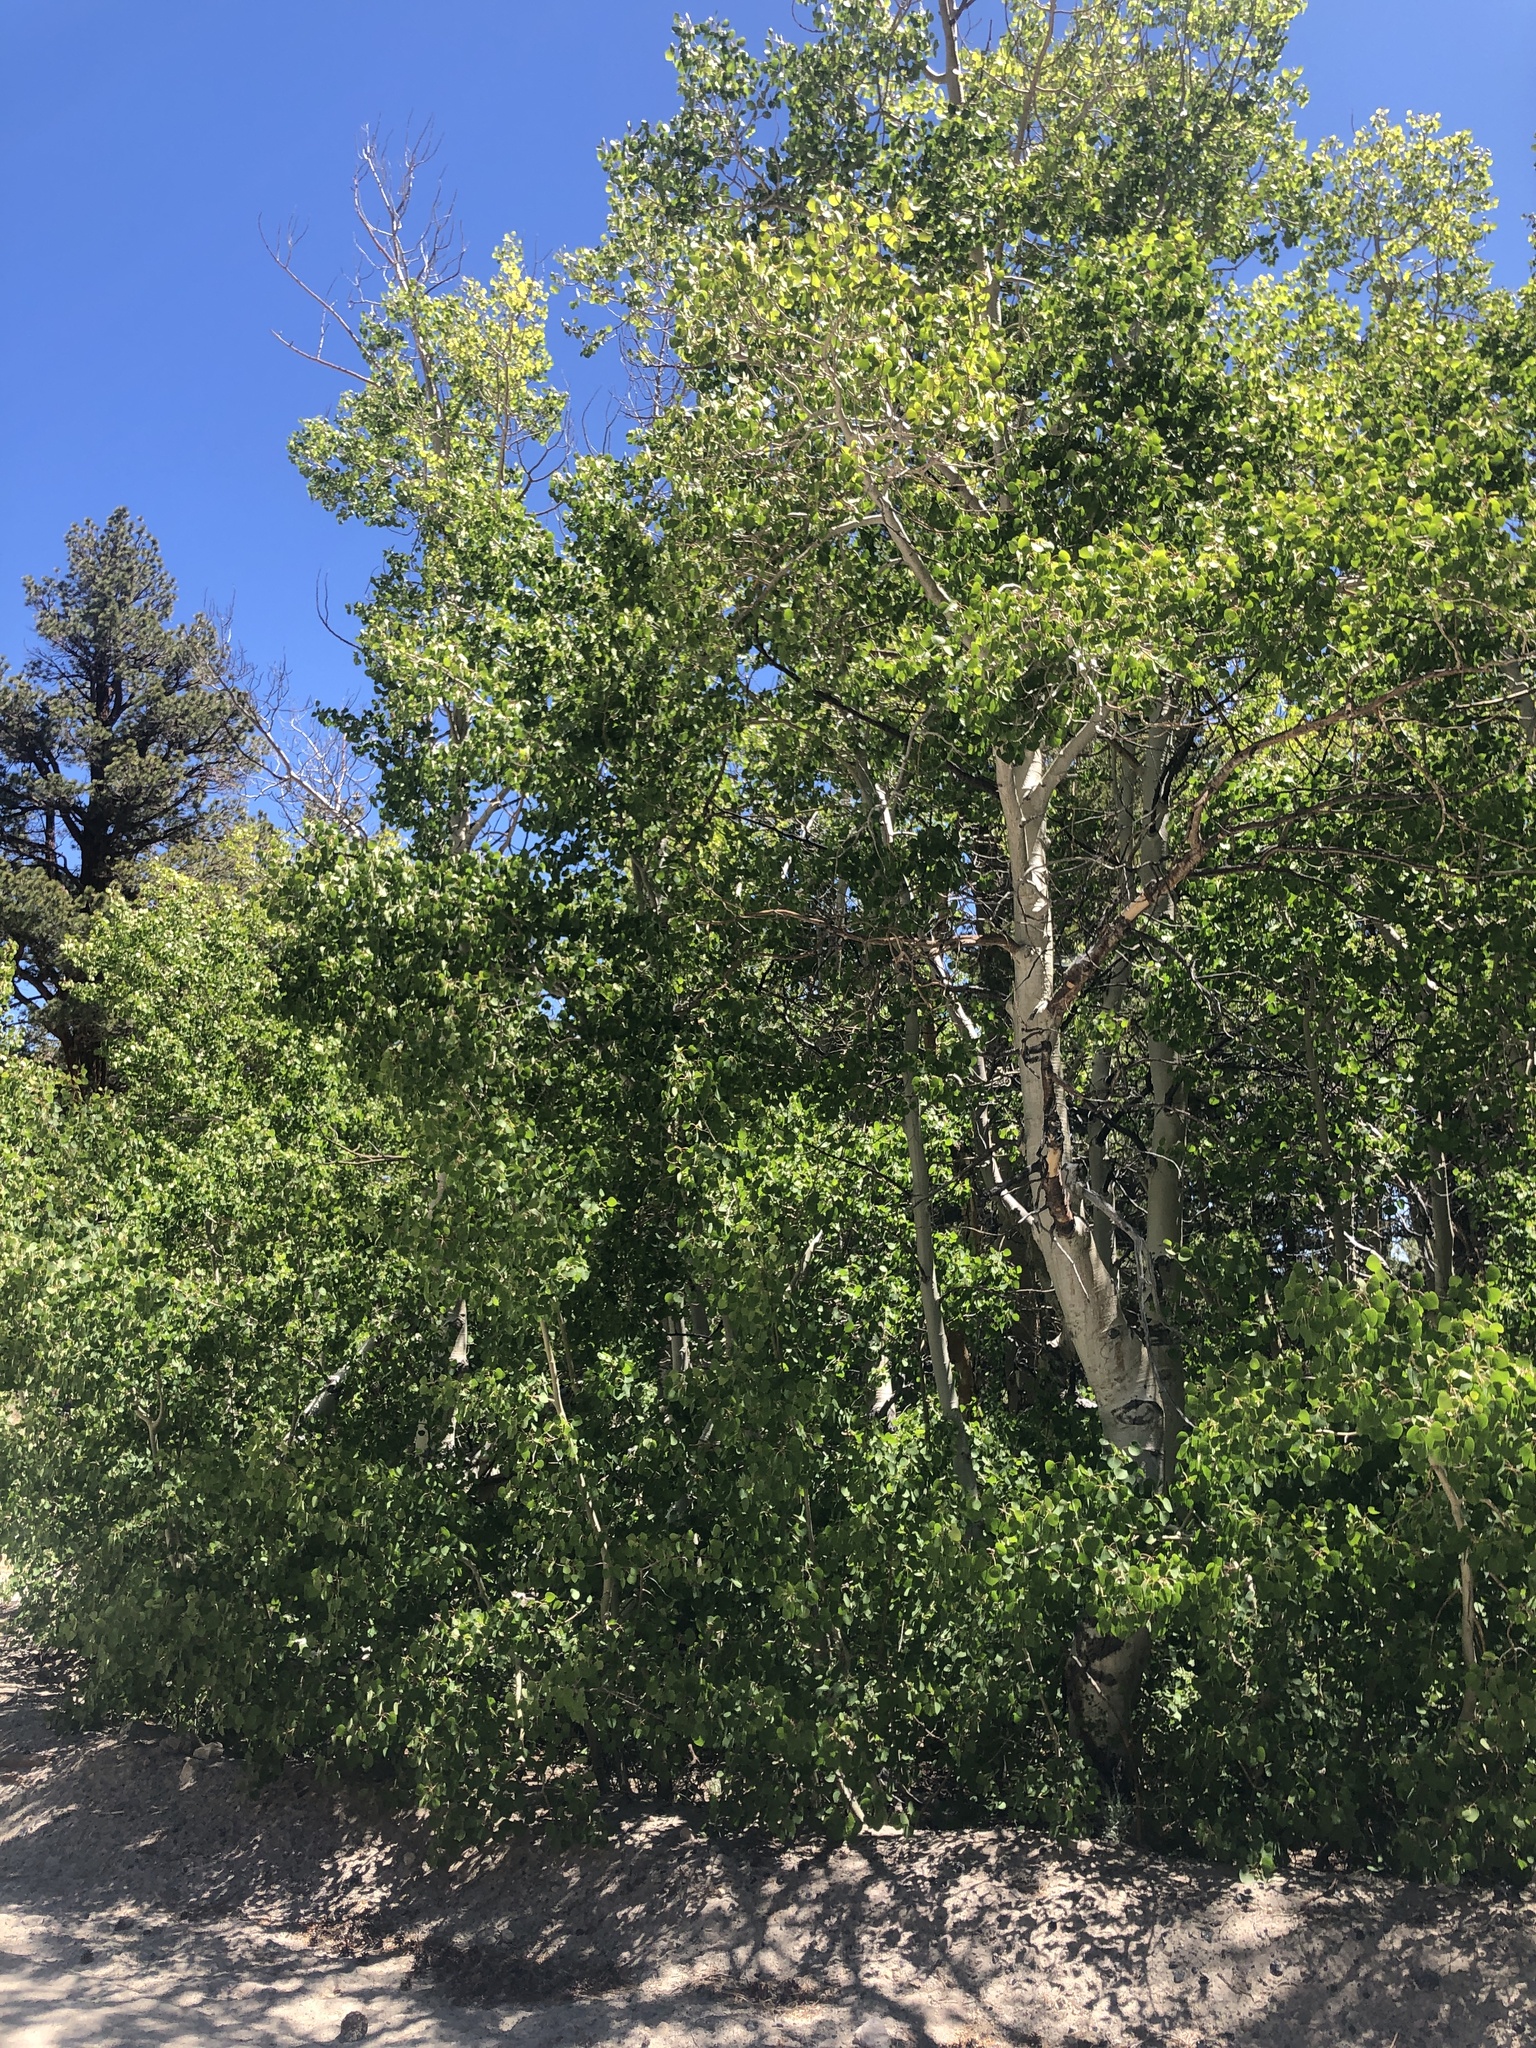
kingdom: Plantae
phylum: Tracheophyta
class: Magnoliopsida
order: Malpighiales
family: Salicaceae
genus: Populus
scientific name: Populus tremuloides
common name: Quaking aspen
